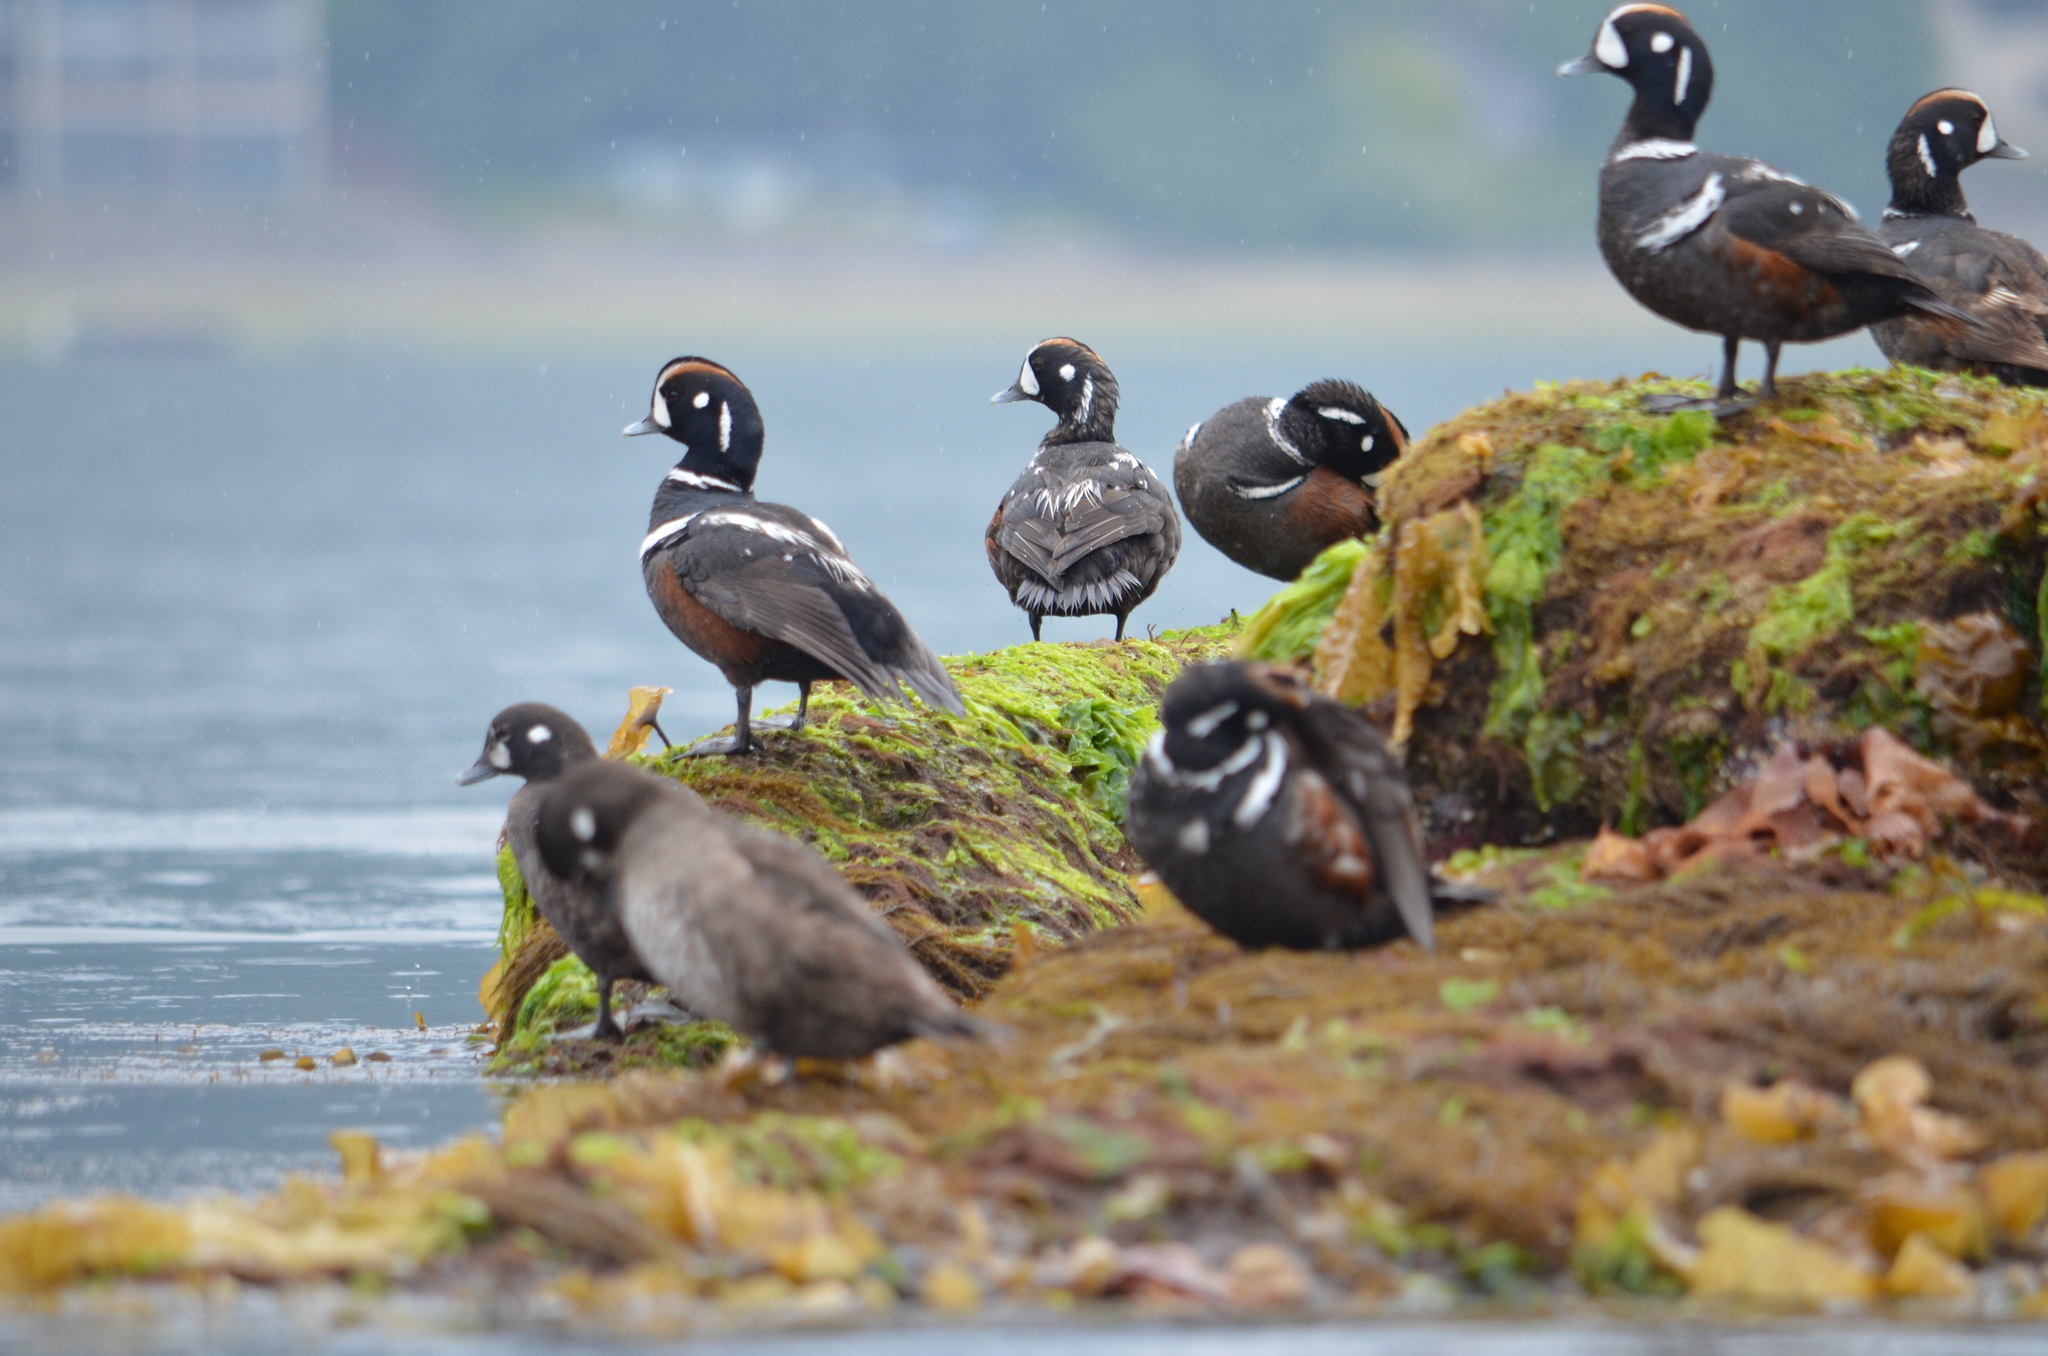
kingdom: Animalia
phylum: Chordata
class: Aves
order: Anseriformes
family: Anatidae
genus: Histrionicus
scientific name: Histrionicus histrionicus
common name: Harlequin duck
